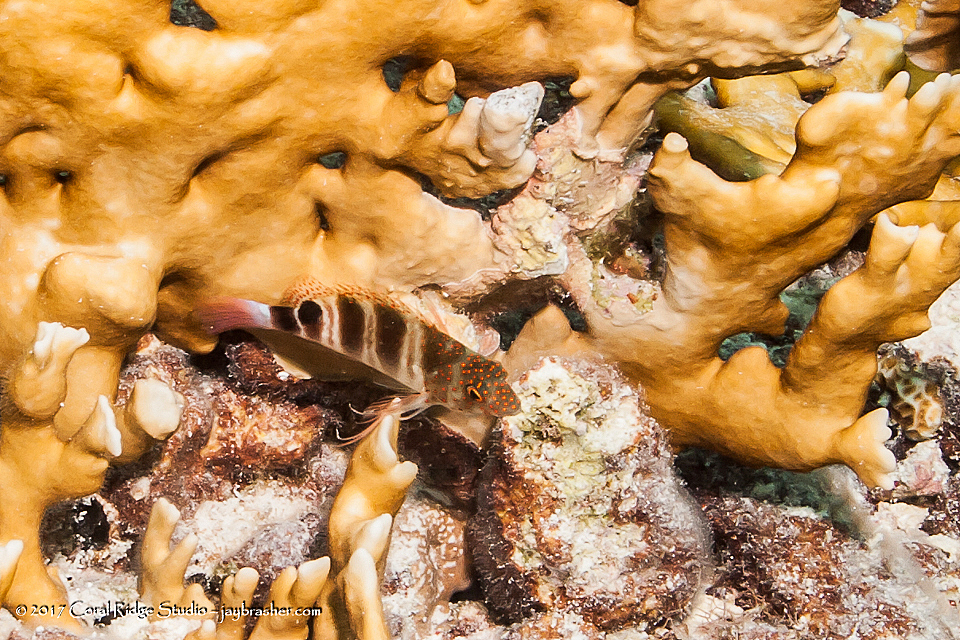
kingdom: Animalia
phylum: Chordata
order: Perciformes
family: Cirrhitidae
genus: Amblycirrhitus
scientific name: Amblycirrhitus pinos
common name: Redspotted hawkfish
